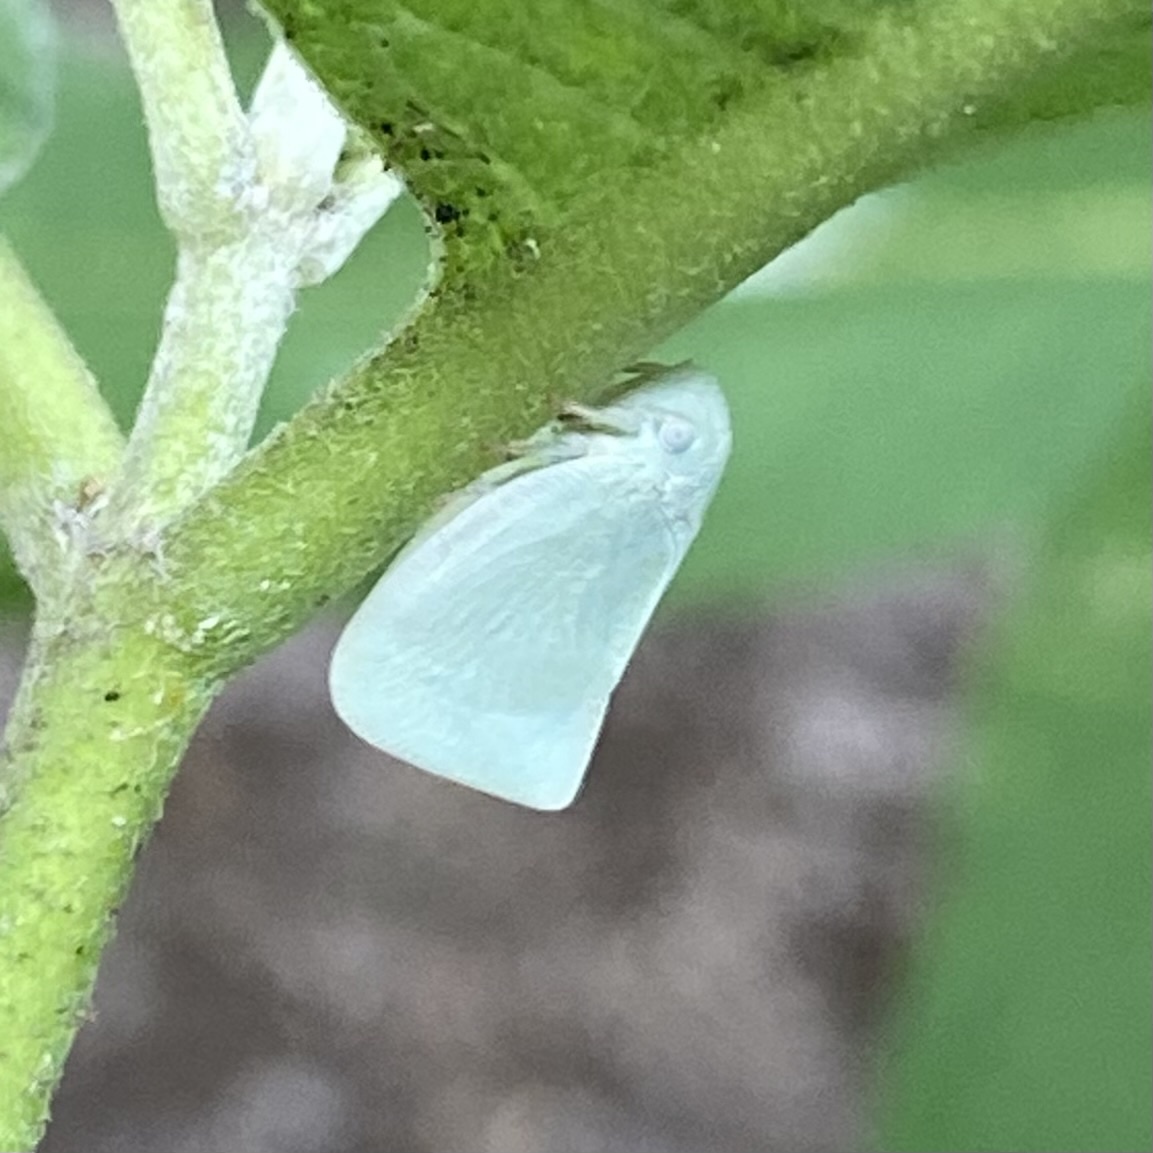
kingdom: Animalia
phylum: Arthropoda
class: Insecta
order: Hemiptera
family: Flatidae
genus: Flatormenis
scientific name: Flatormenis proxima
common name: Northern flatid planthopper
